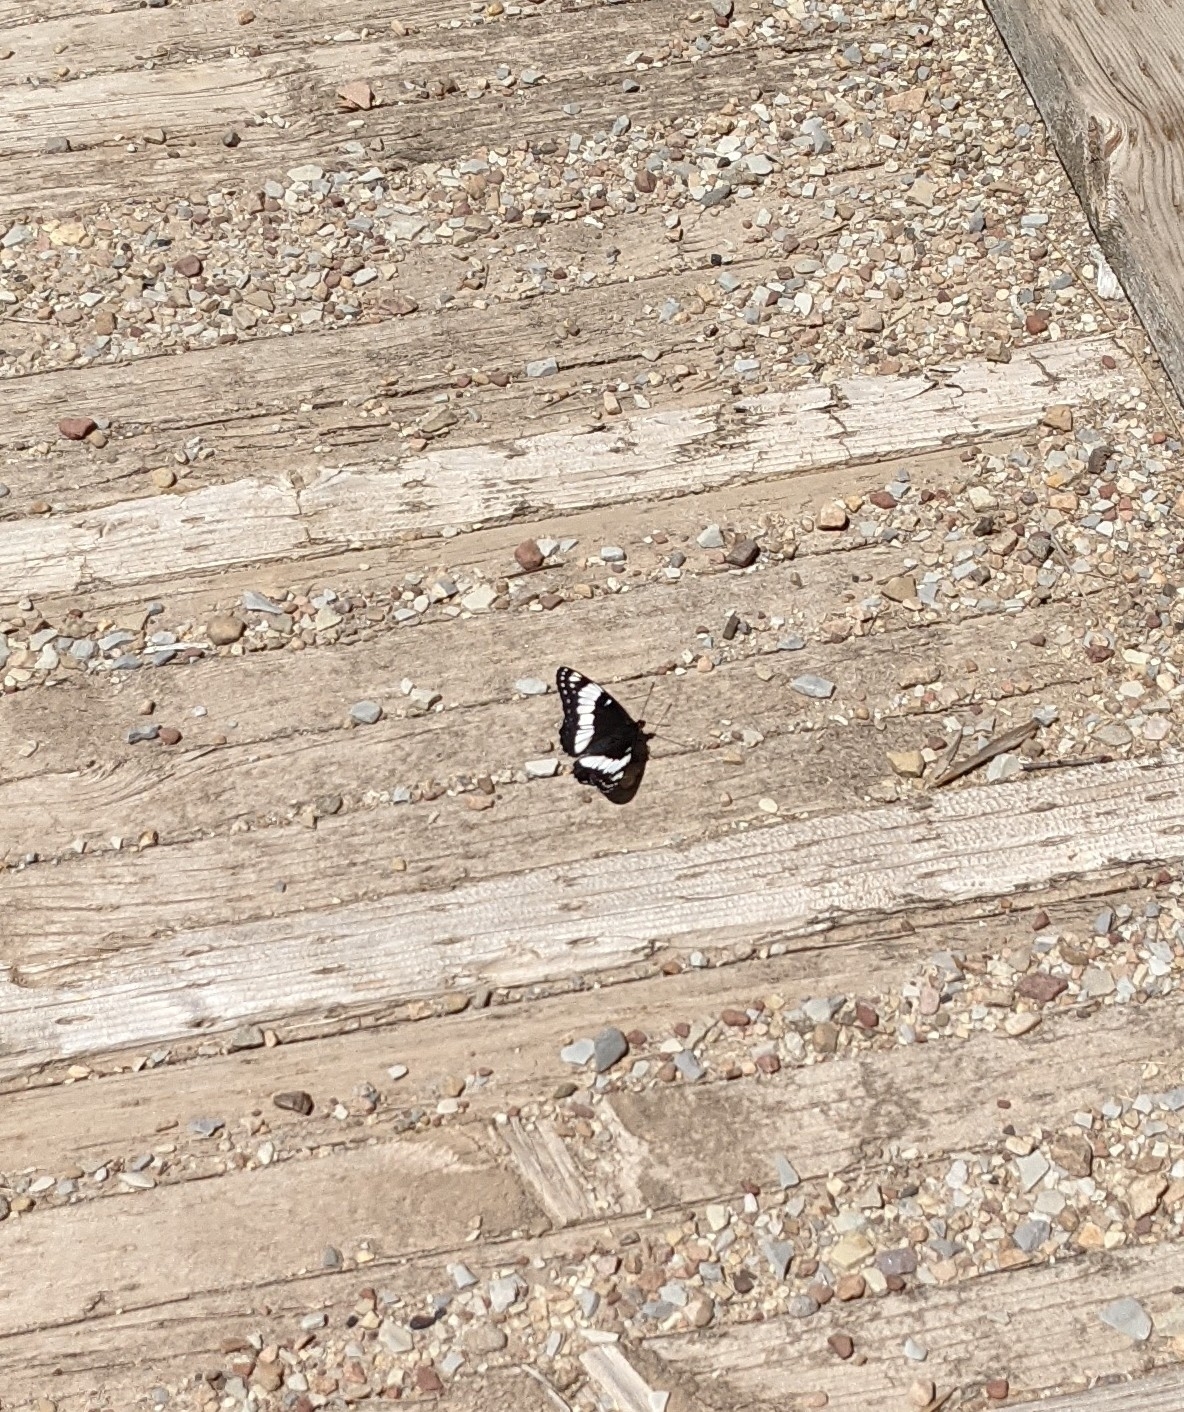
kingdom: Animalia
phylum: Arthropoda
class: Insecta
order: Lepidoptera
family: Nymphalidae
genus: Limenitis
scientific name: Limenitis weidemeyerii
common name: Weidemeyer's admiral
